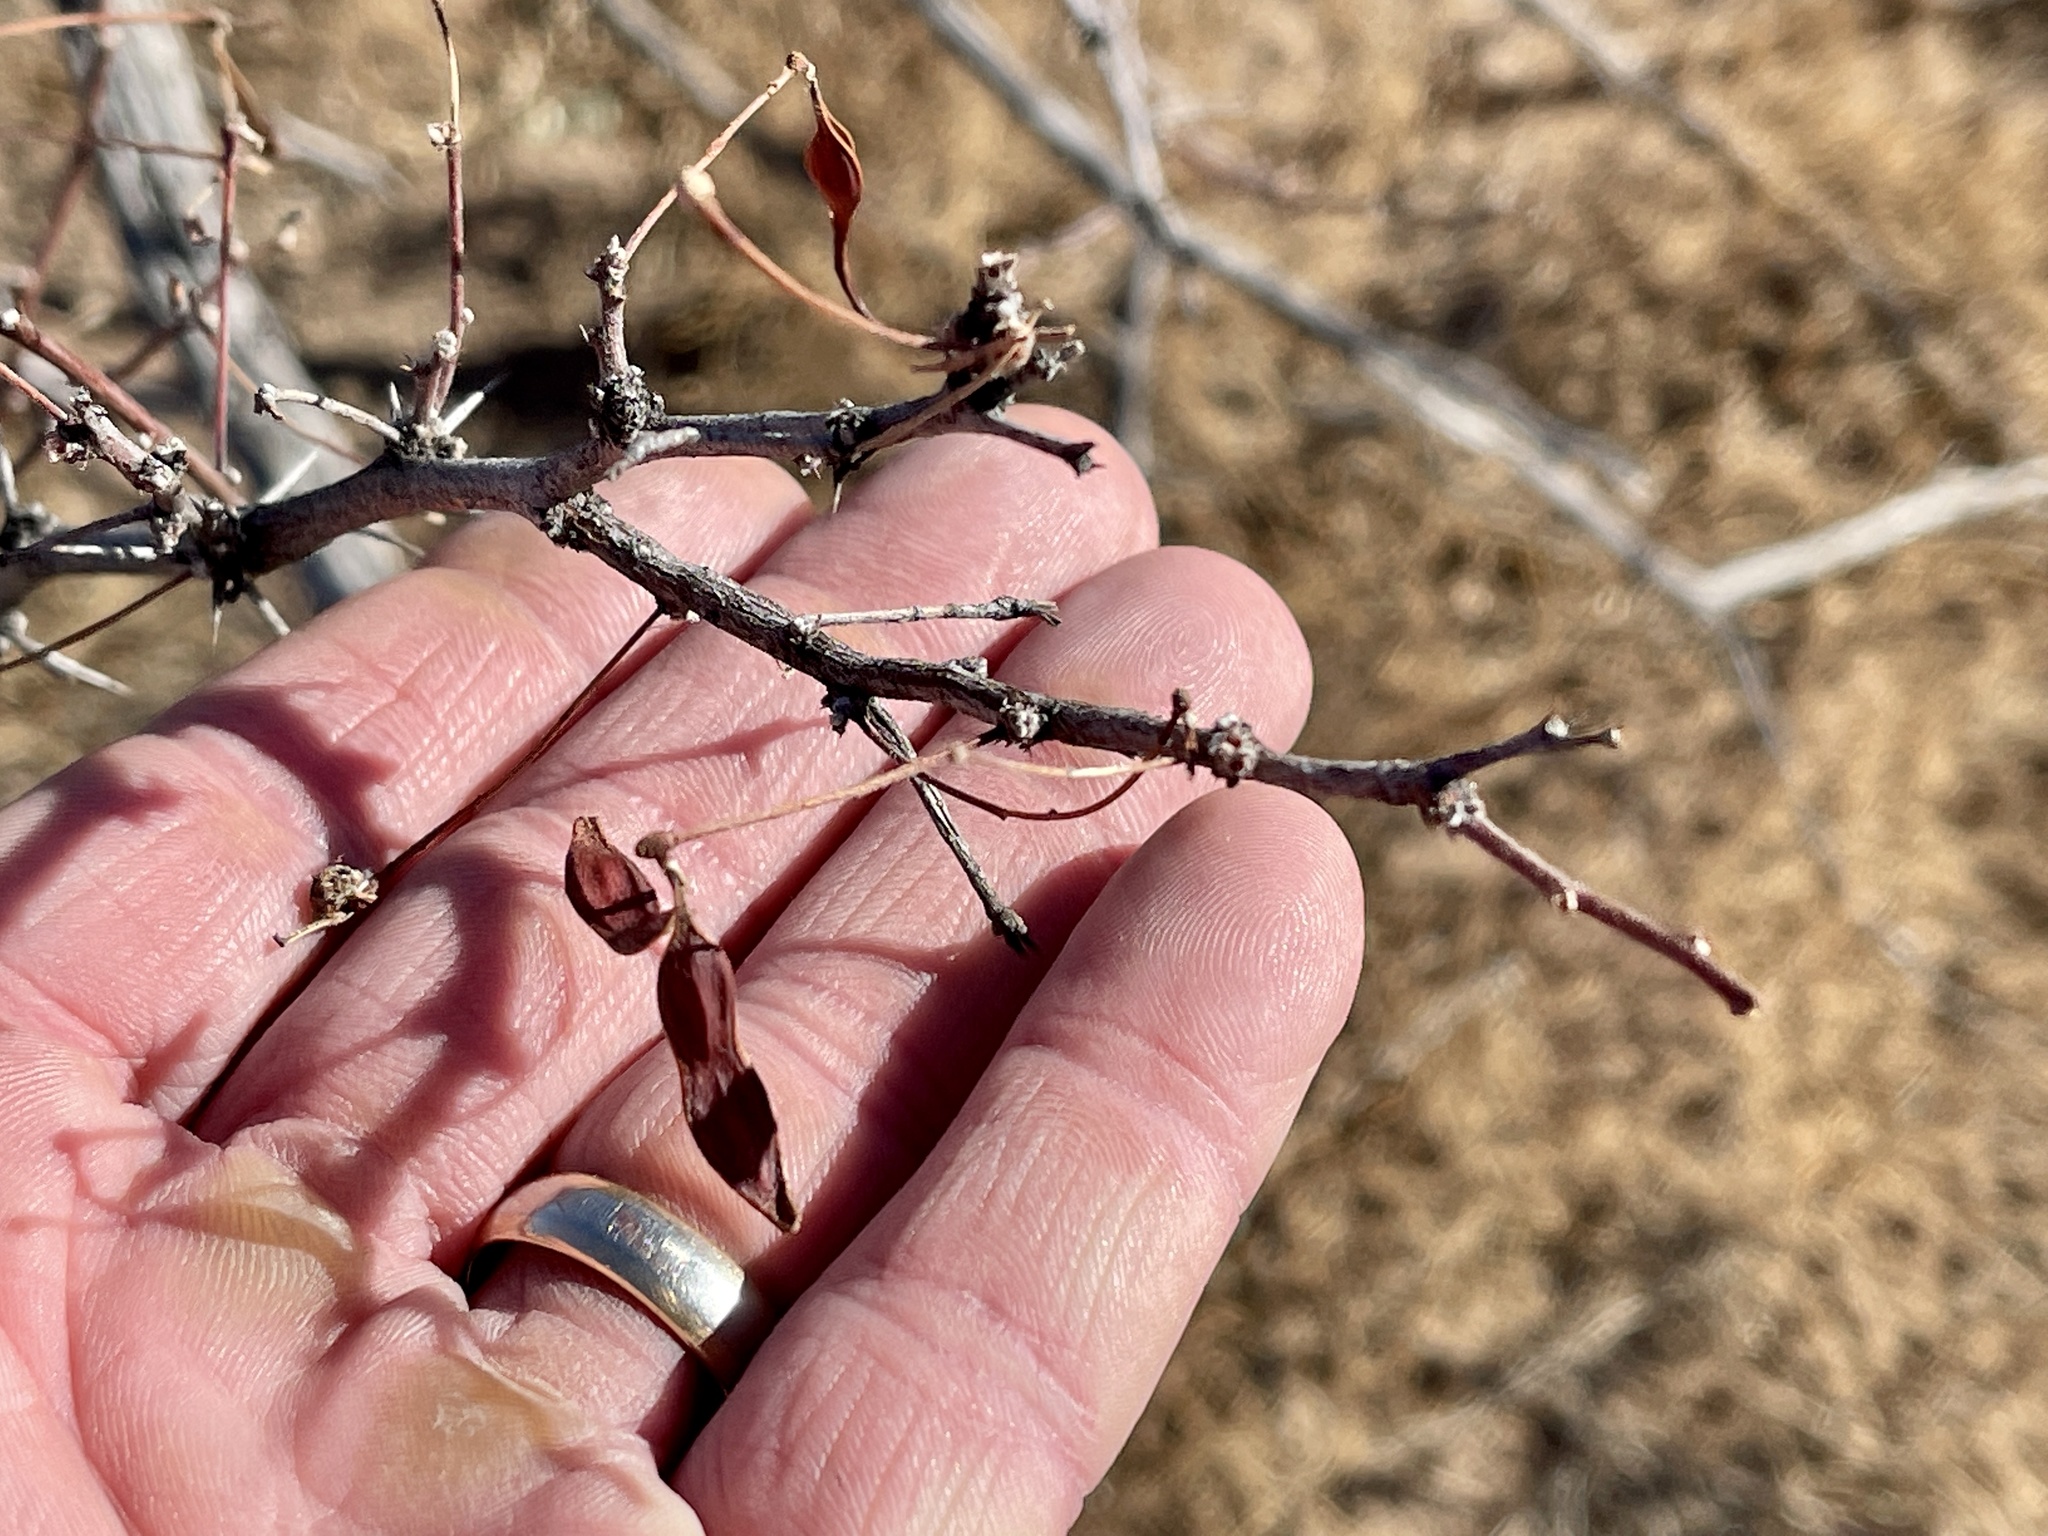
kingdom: Plantae
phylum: Tracheophyta
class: Magnoliopsida
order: Fabales
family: Fabaceae
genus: Vachellia
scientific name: Vachellia constricta
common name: Mescat acacia
